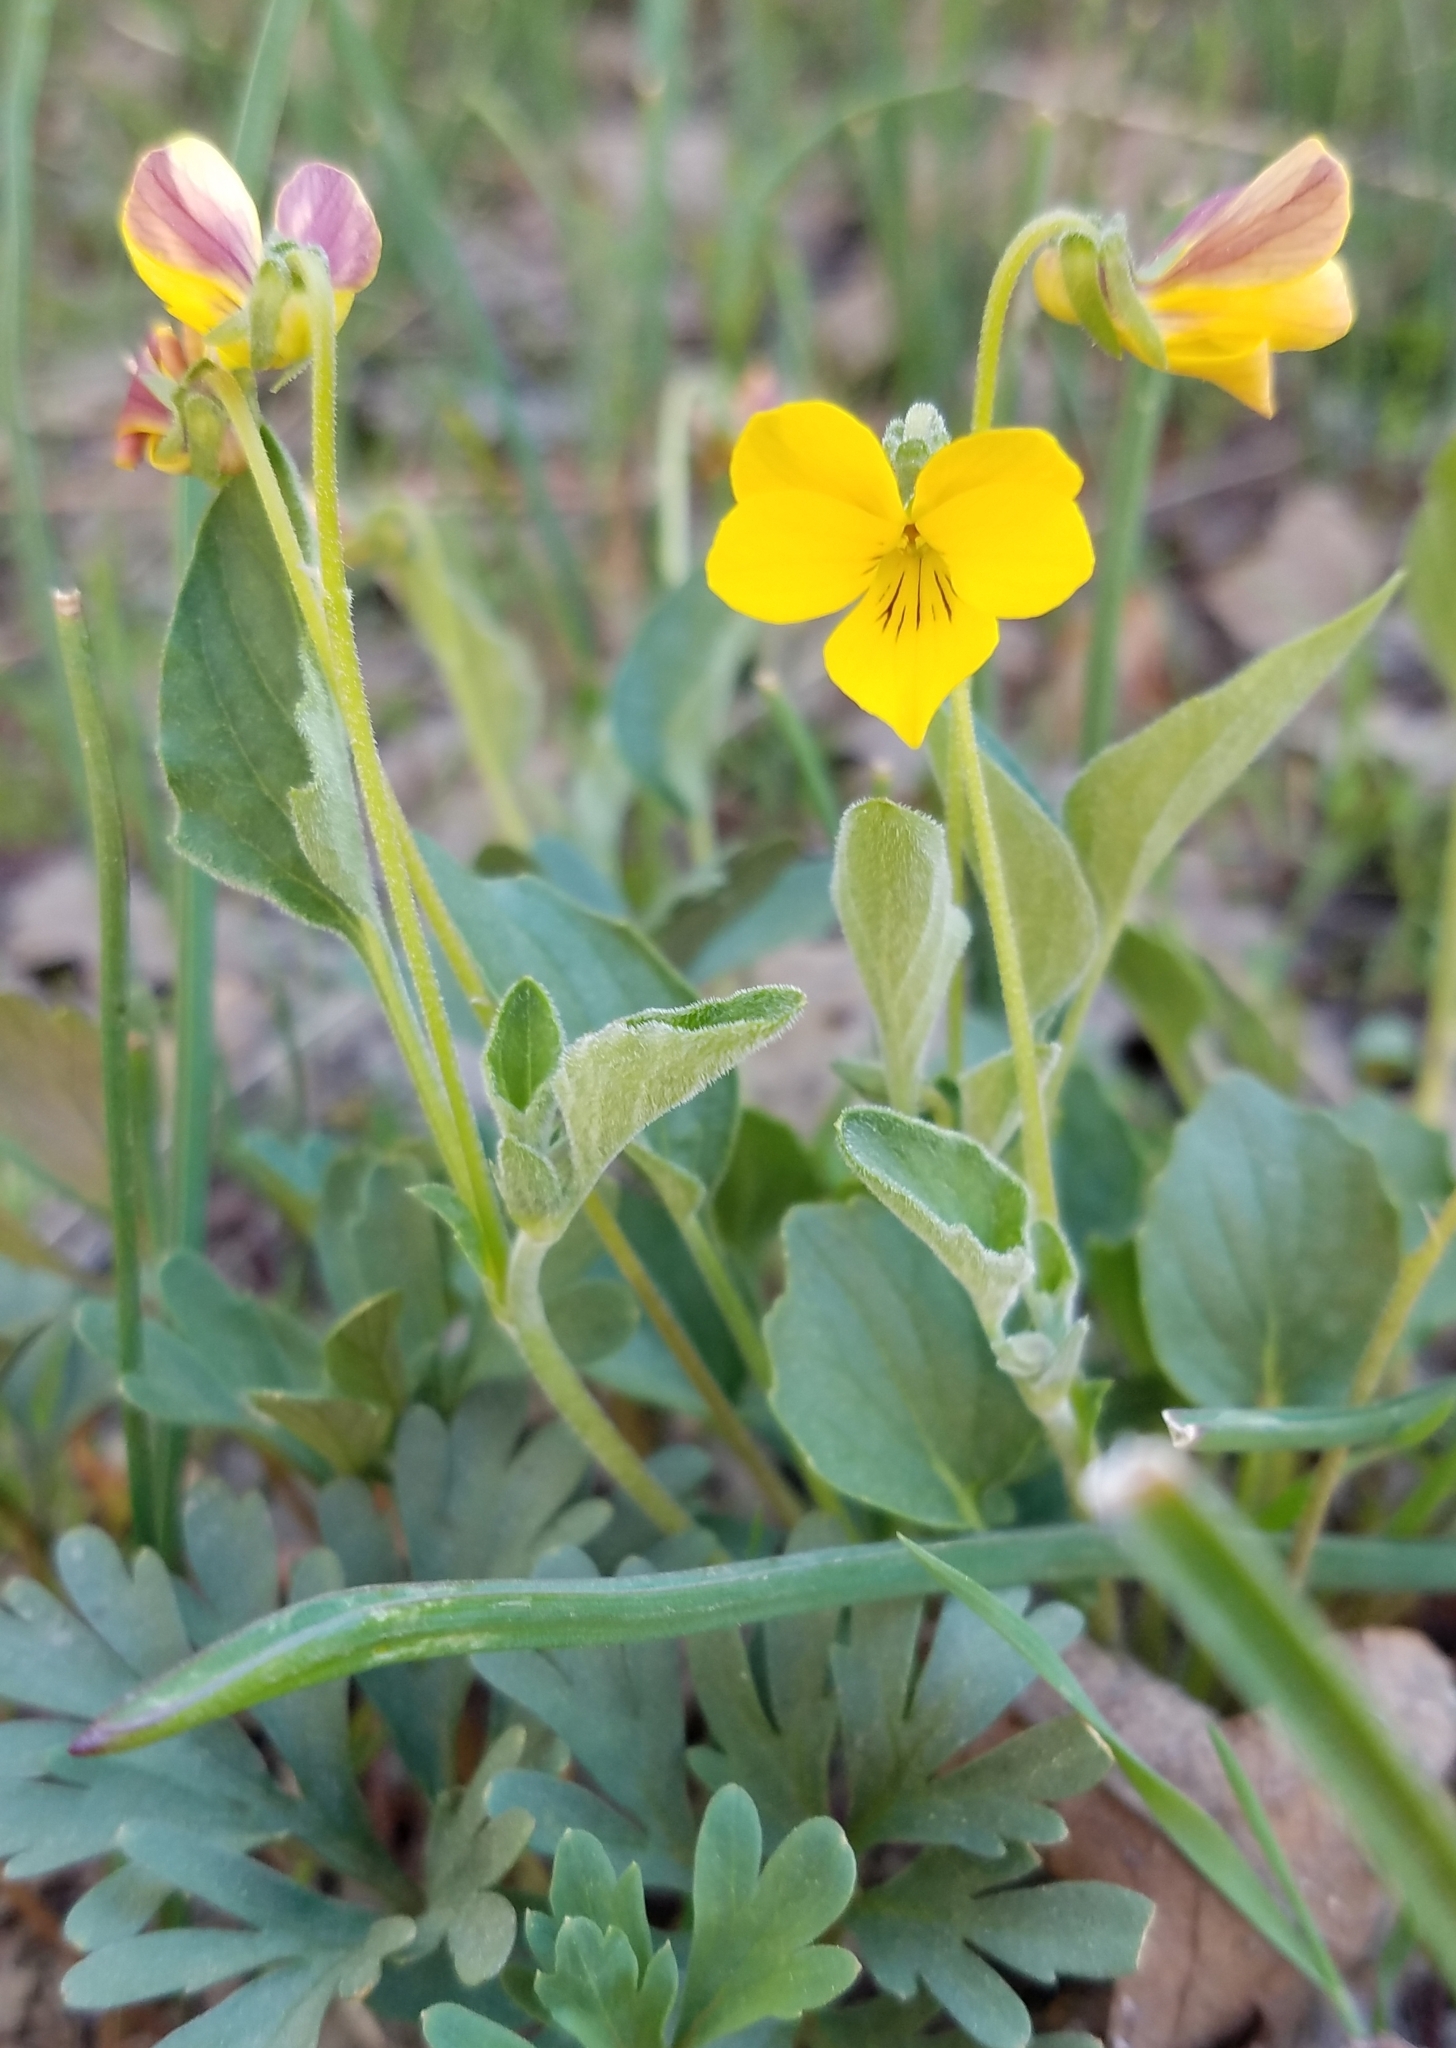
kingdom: Plantae
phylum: Tracheophyta
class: Magnoliopsida
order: Malpighiales
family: Violaceae
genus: Viola
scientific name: Viola purpurea
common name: Pine violet
